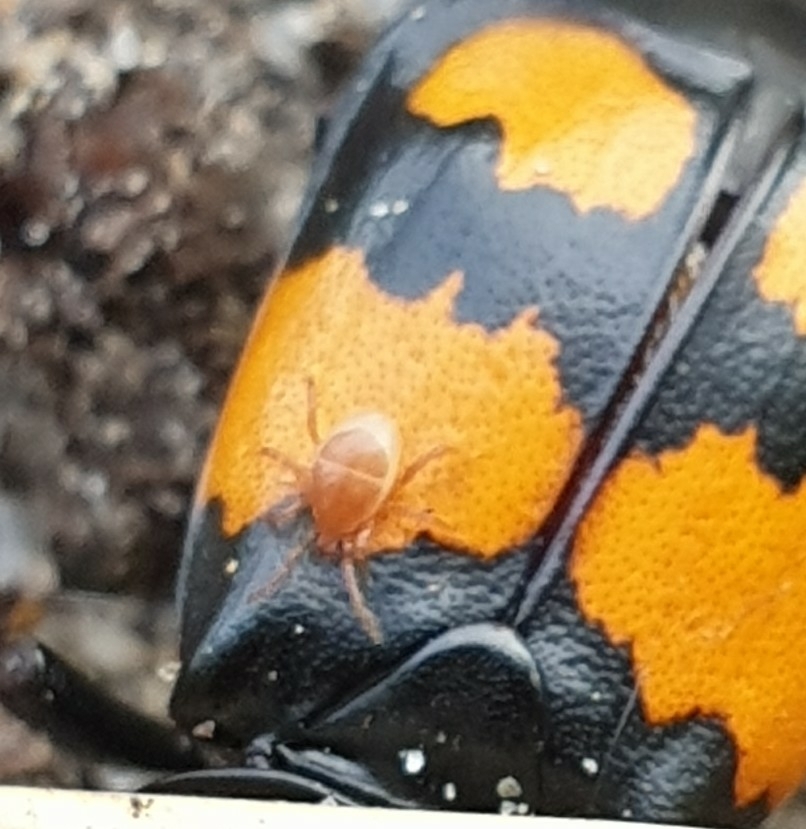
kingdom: Animalia
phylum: Arthropoda
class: Arachnida
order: Mesostigmata
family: Parasitidae
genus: Poecilochirus
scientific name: Poecilochirus
